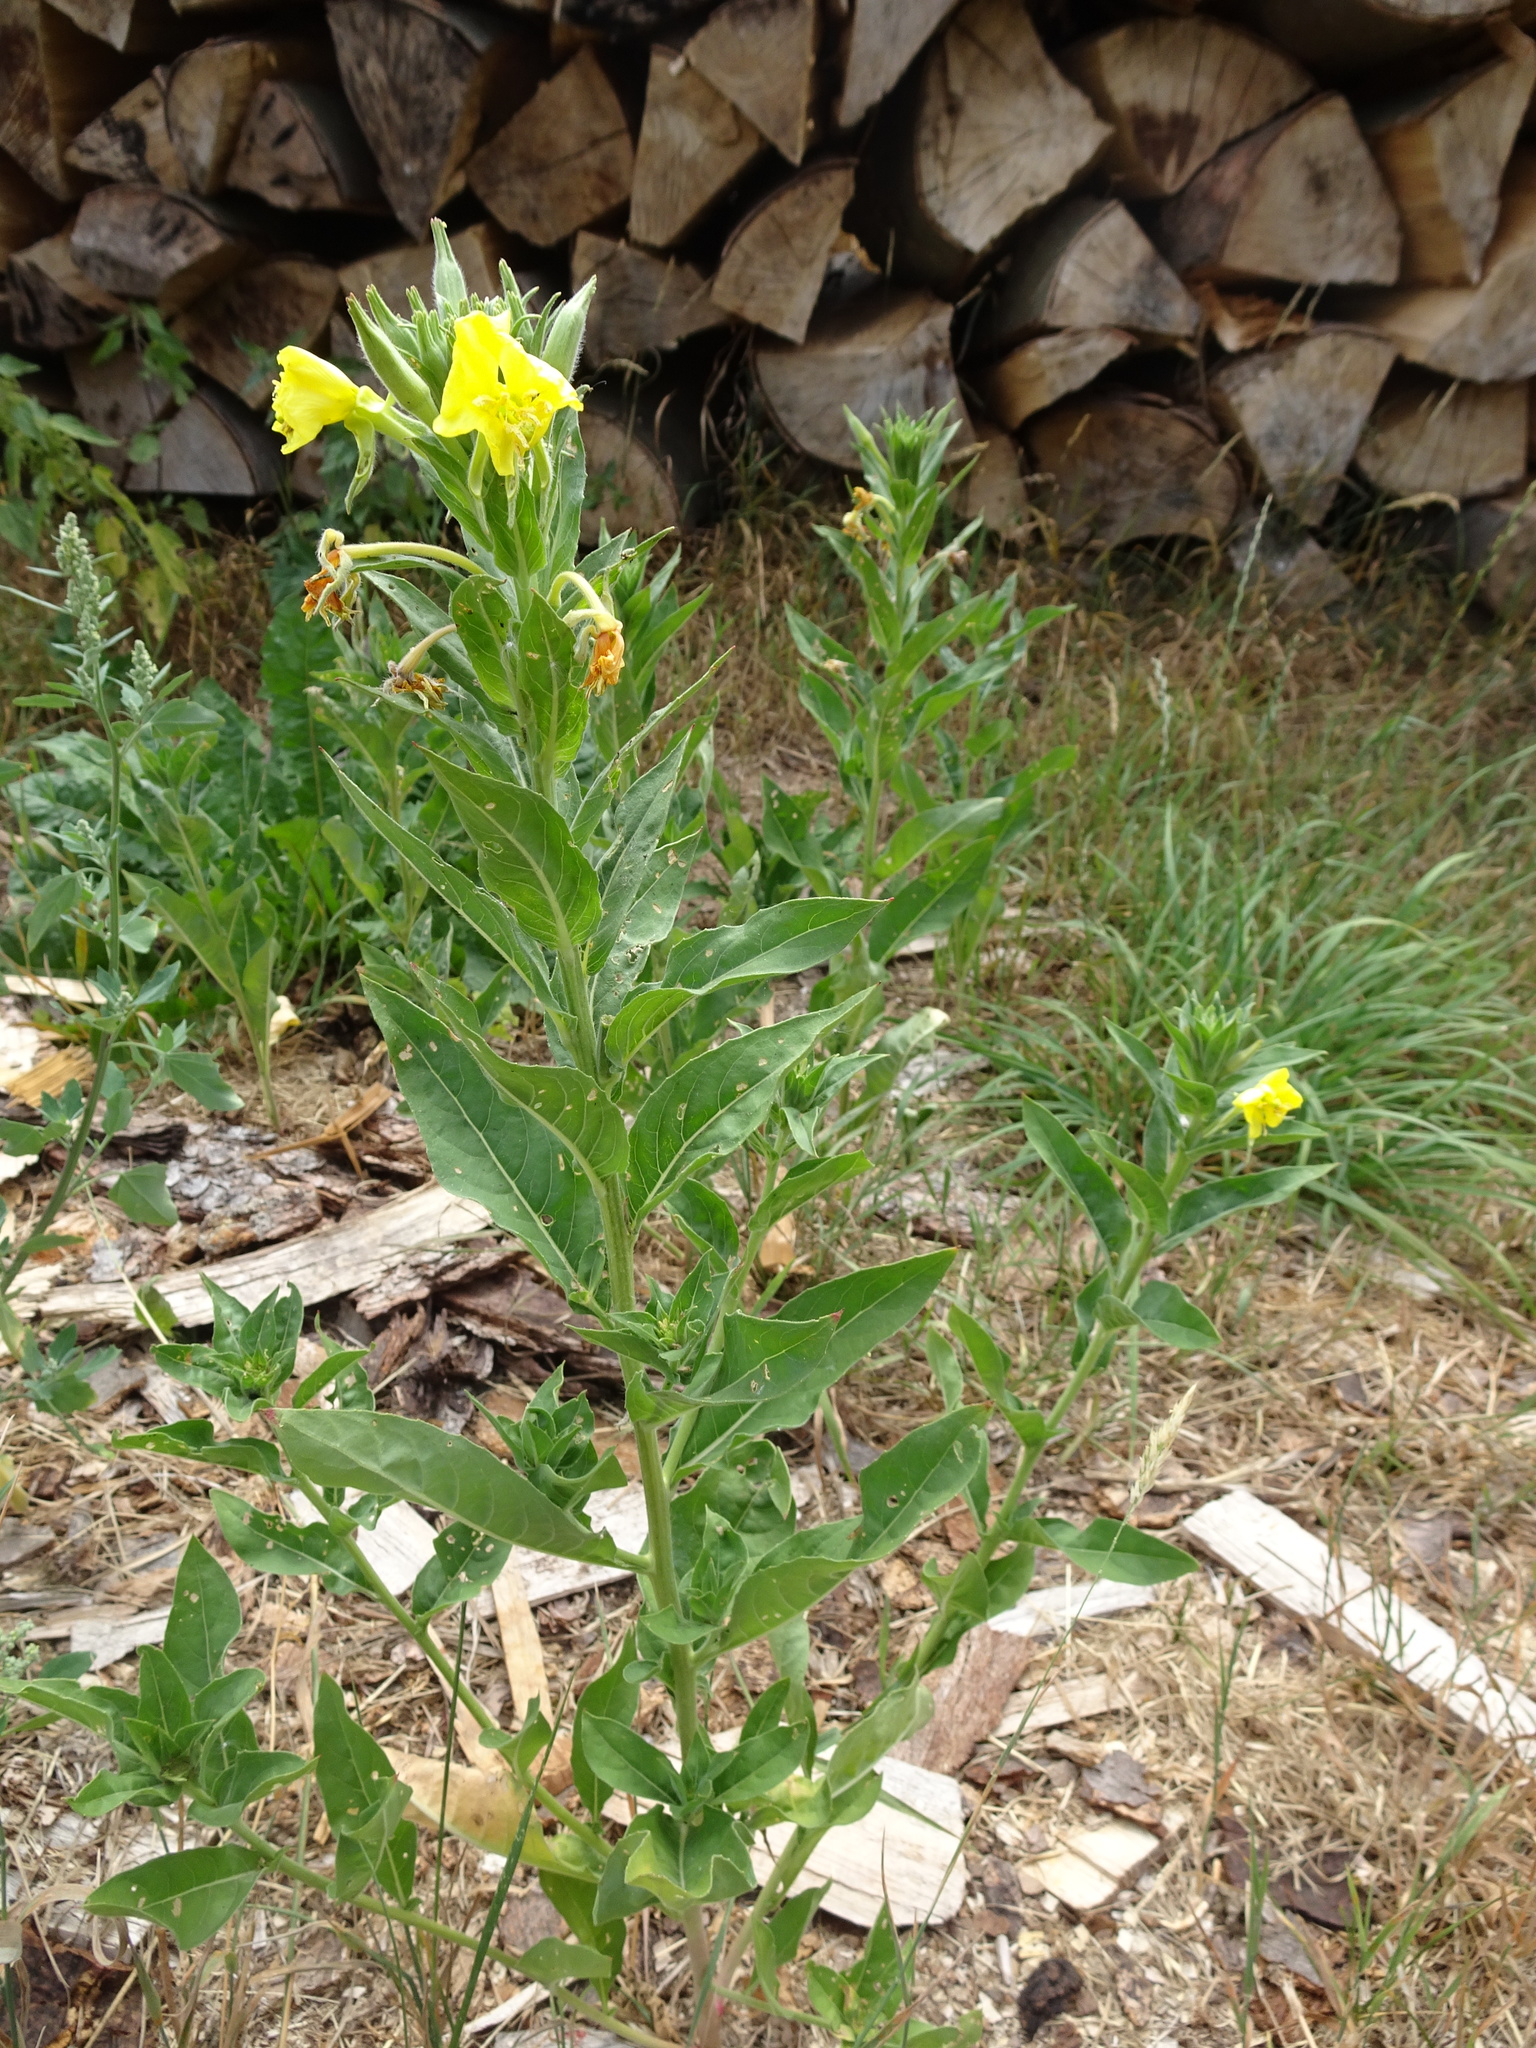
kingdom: Plantae
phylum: Tracheophyta
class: Magnoliopsida
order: Myrtales
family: Onagraceae
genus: Oenothera
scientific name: Oenothera biennis
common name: Common evening-primrose
